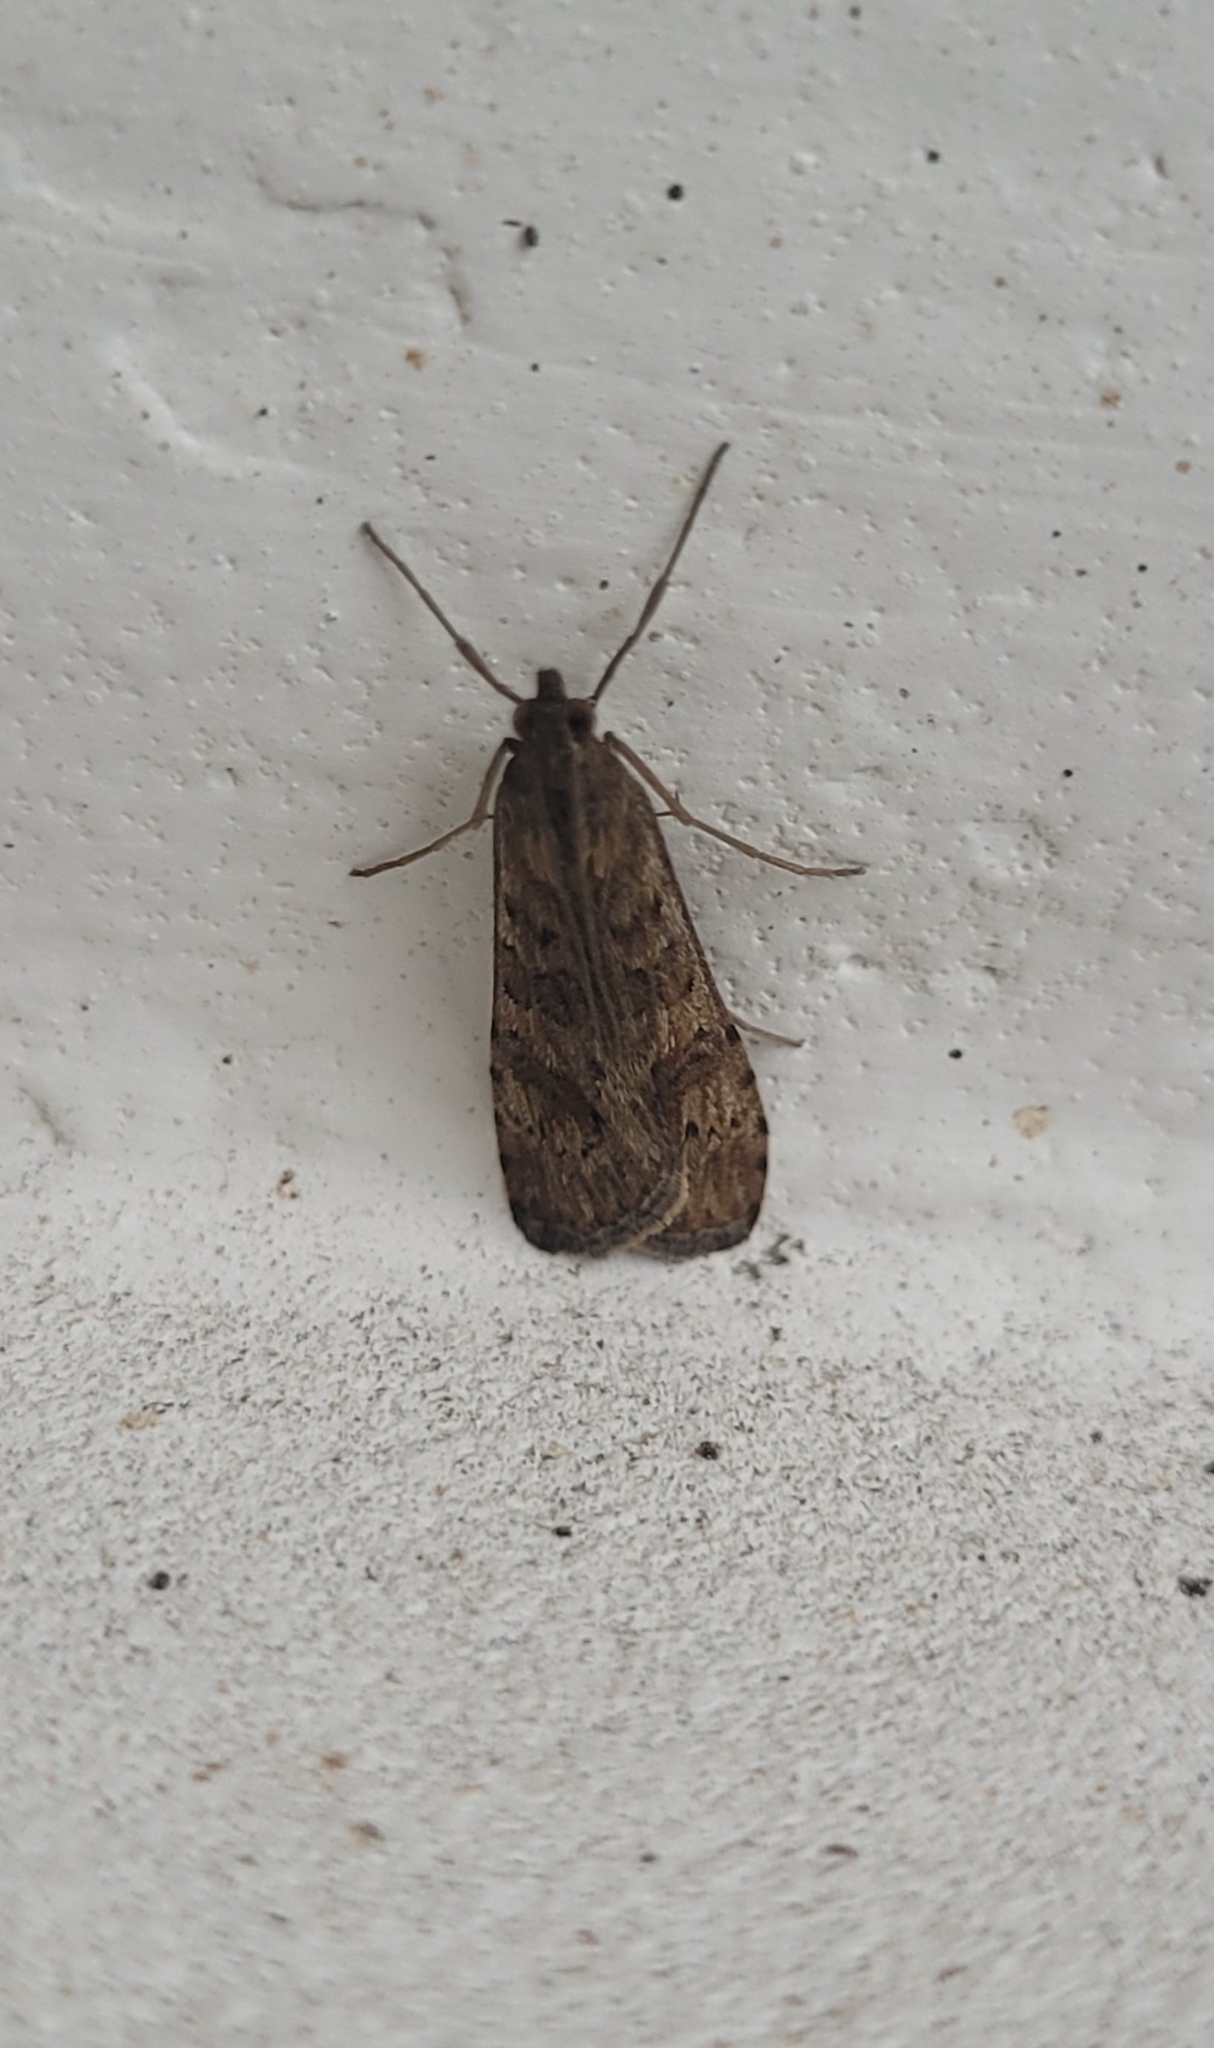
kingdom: Animalia
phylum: Arthropoda
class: Insecta
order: Lepidoptera
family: Crambidae
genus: Nomophila
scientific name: Nomophila noctuella
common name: Rush veneer
